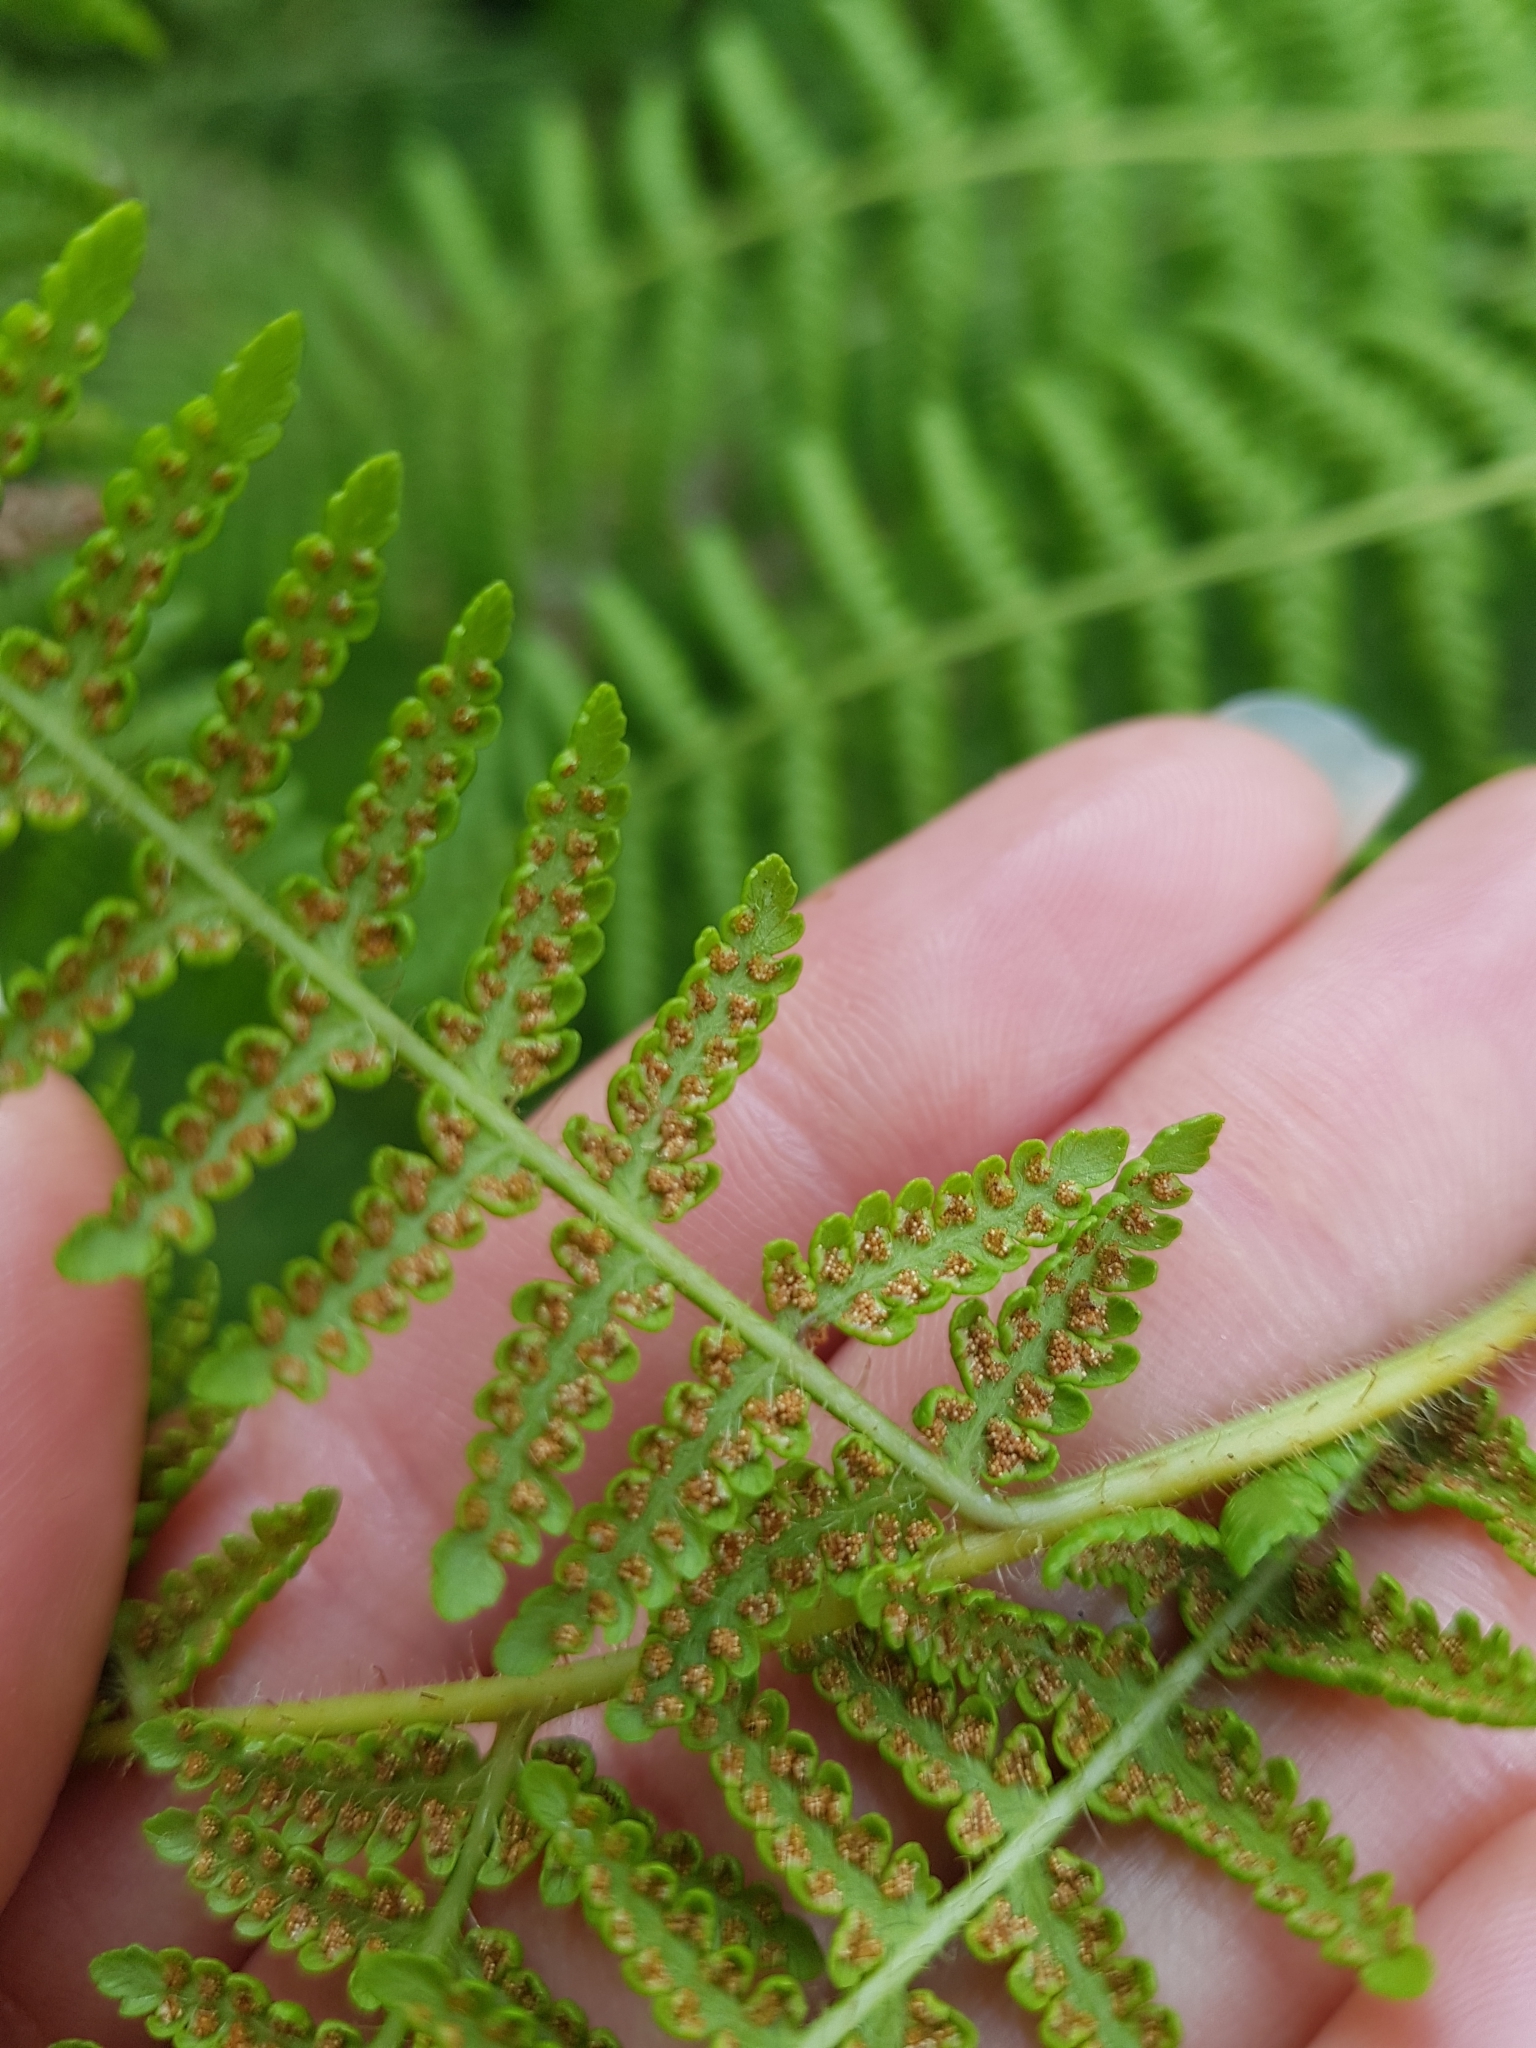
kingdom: Plantae
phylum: Tracheophyta
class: Polypodiopsida
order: Polypodiales
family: Dennstaedtiaceae
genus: Hypolepis
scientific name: Hypolepis dicksonioides
